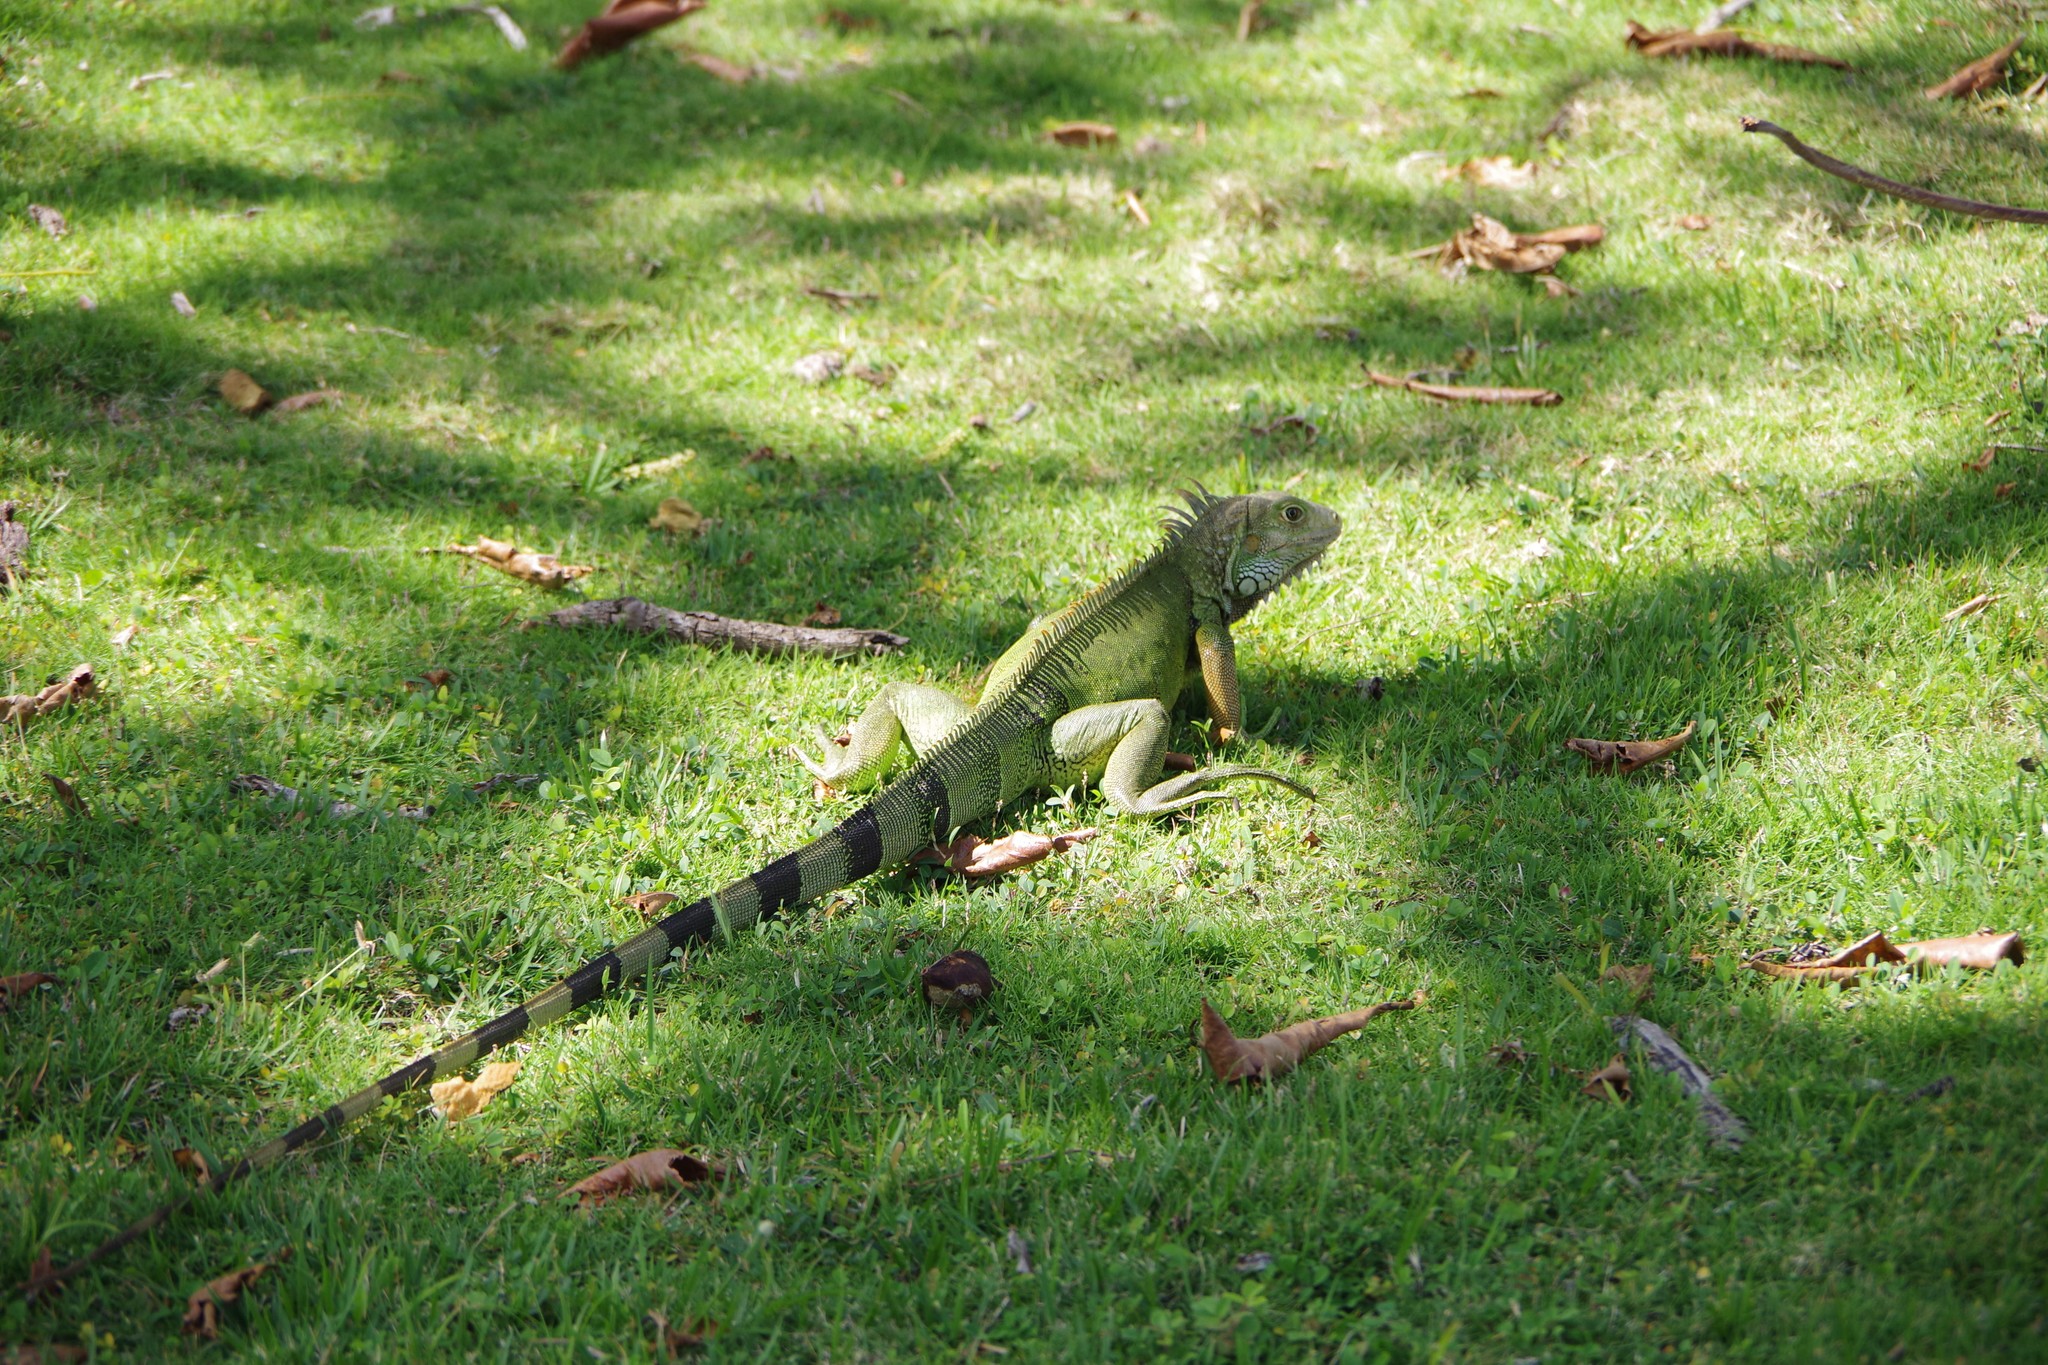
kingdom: Animalia
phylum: Chordata
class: Squamata
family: Iguanidae
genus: Iguana
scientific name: Iguana iguana
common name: Green iguana
